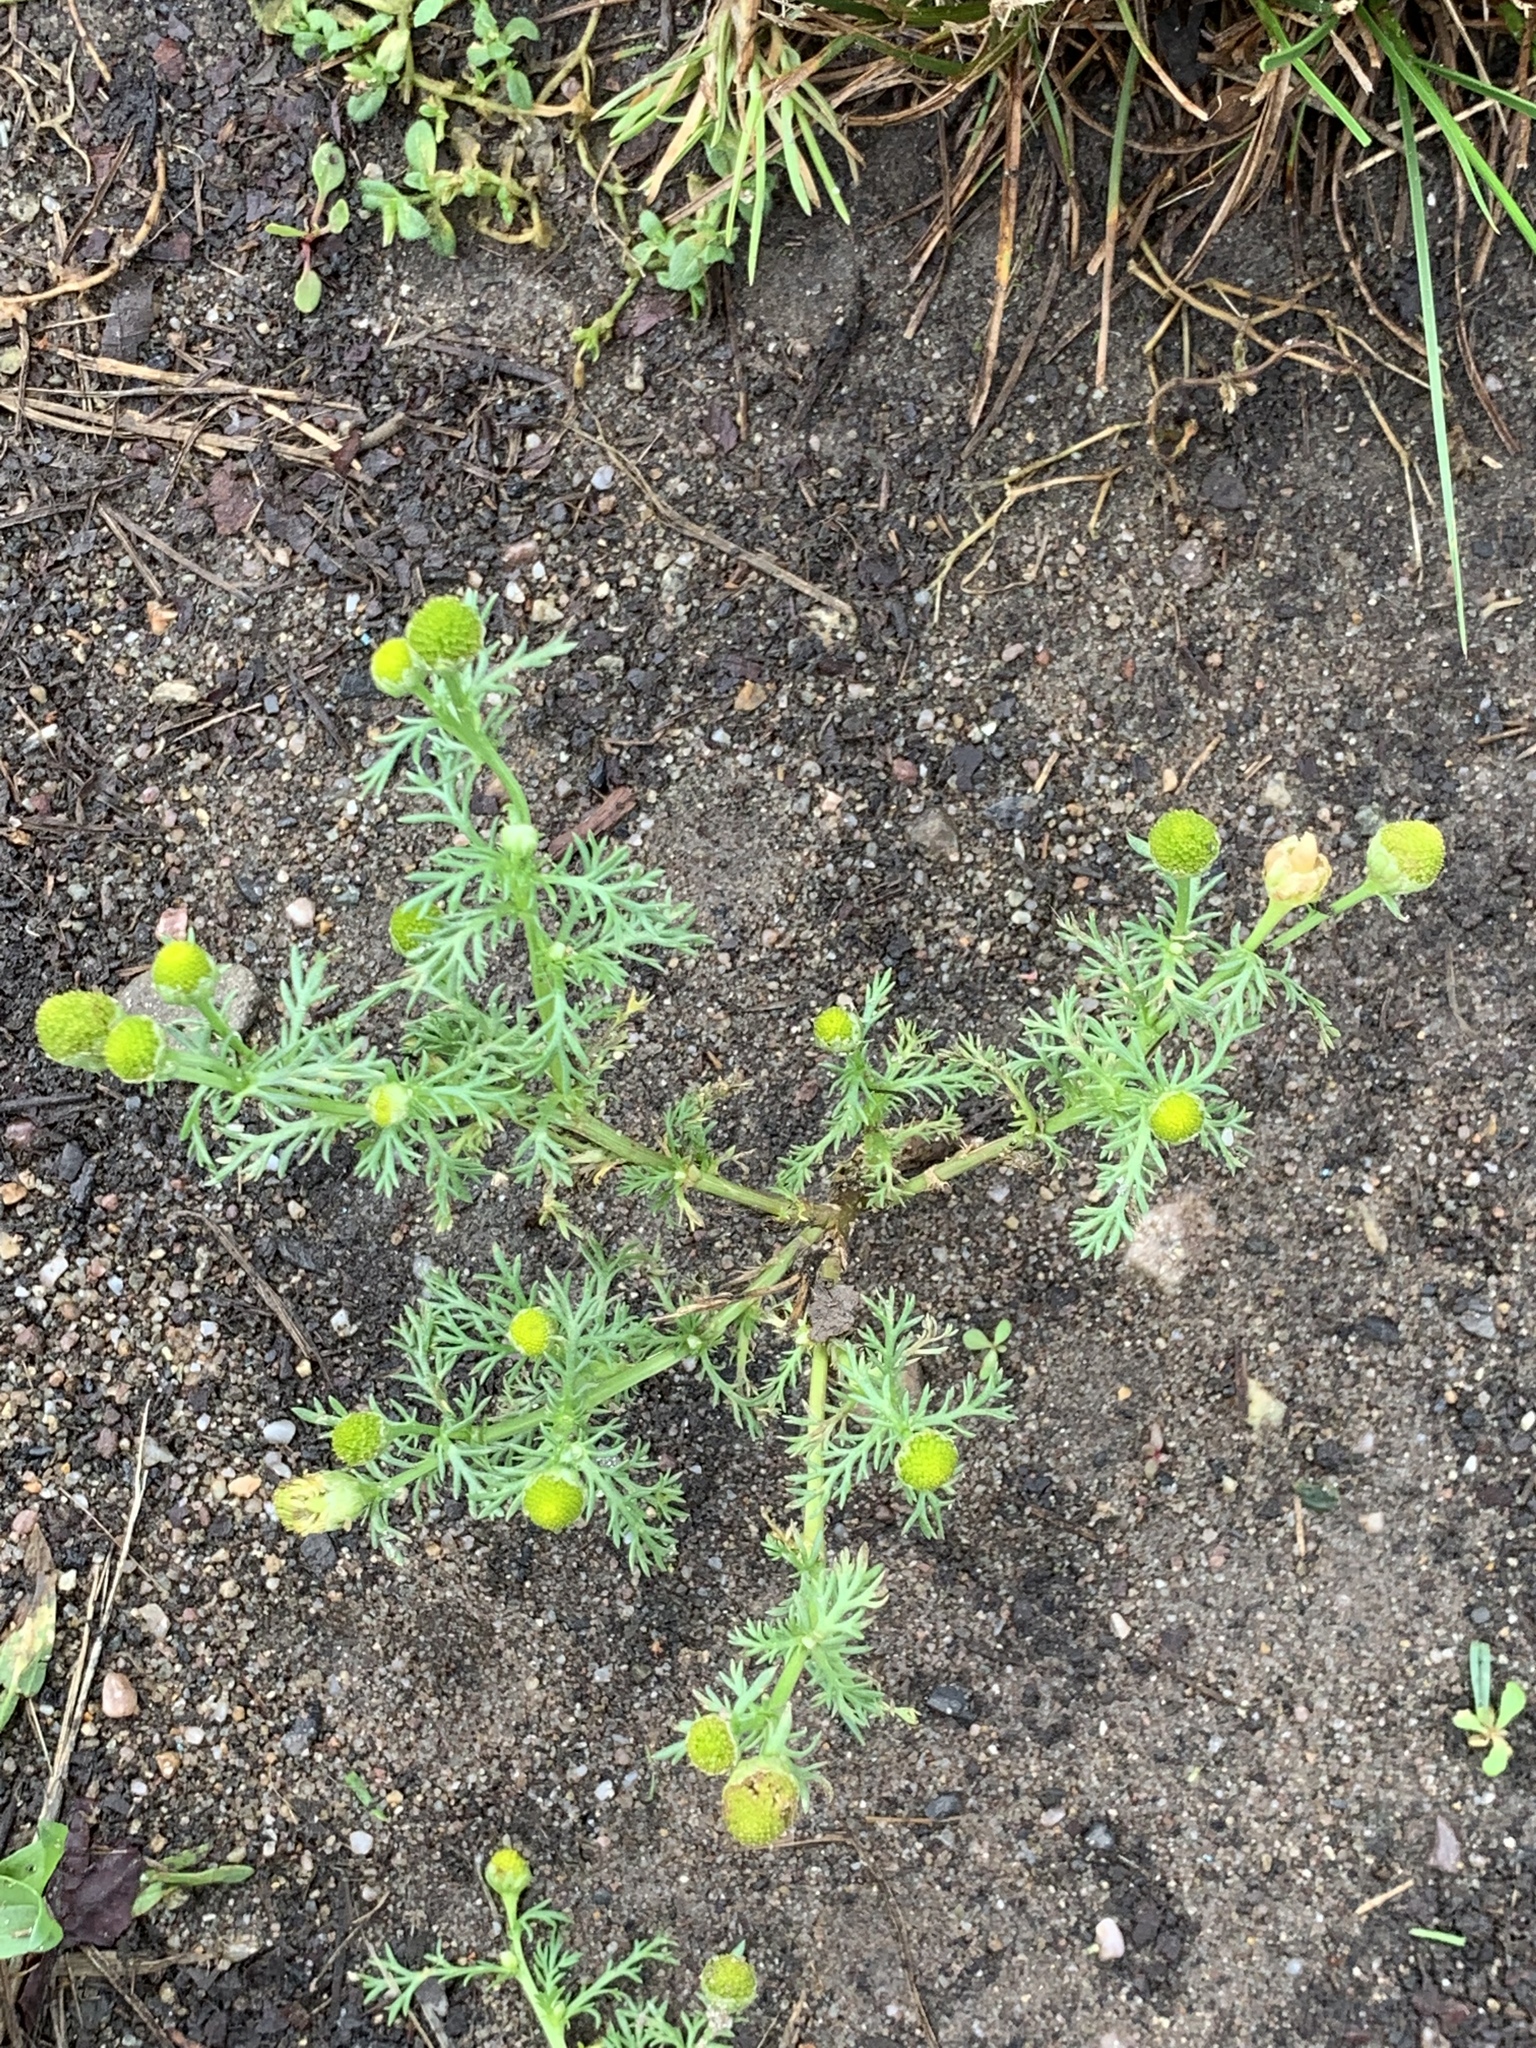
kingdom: Plantae
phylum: Tracheophyta
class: Magnoliopsida
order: Asterales
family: Asteraceae
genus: Matricaria
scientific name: Matricaria discoidea
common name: Disc mayweed
